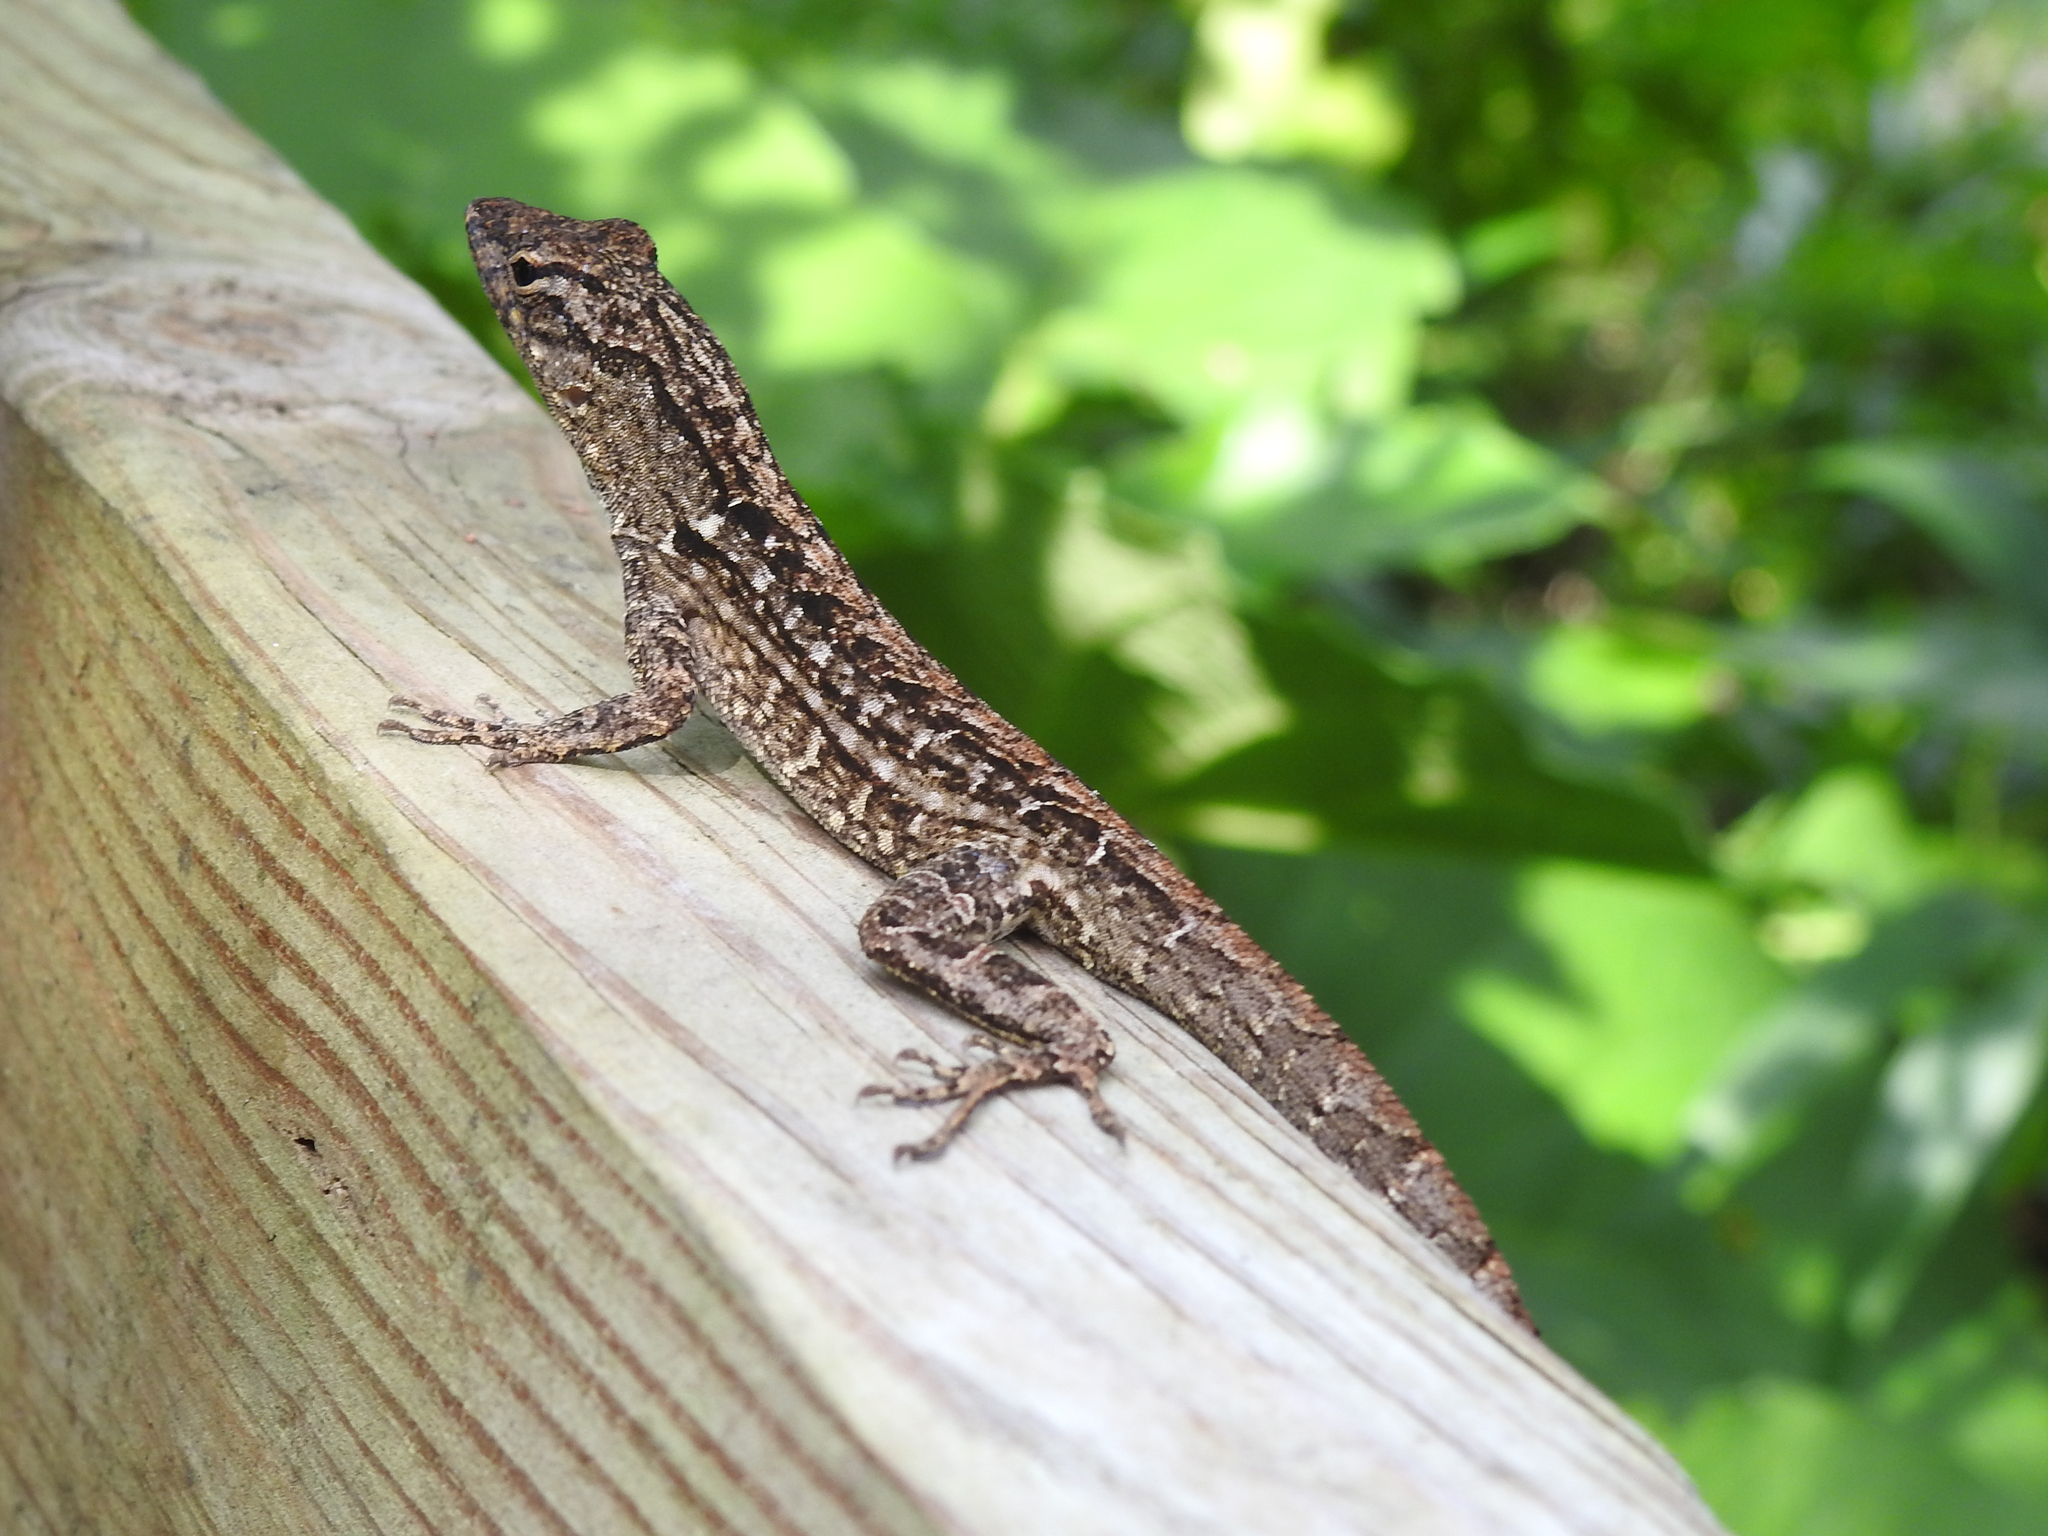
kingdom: Animalia
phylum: Chordata
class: Squamata
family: Dactyloidae
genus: Anolis
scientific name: Anolis sagrei
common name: Brown anole
